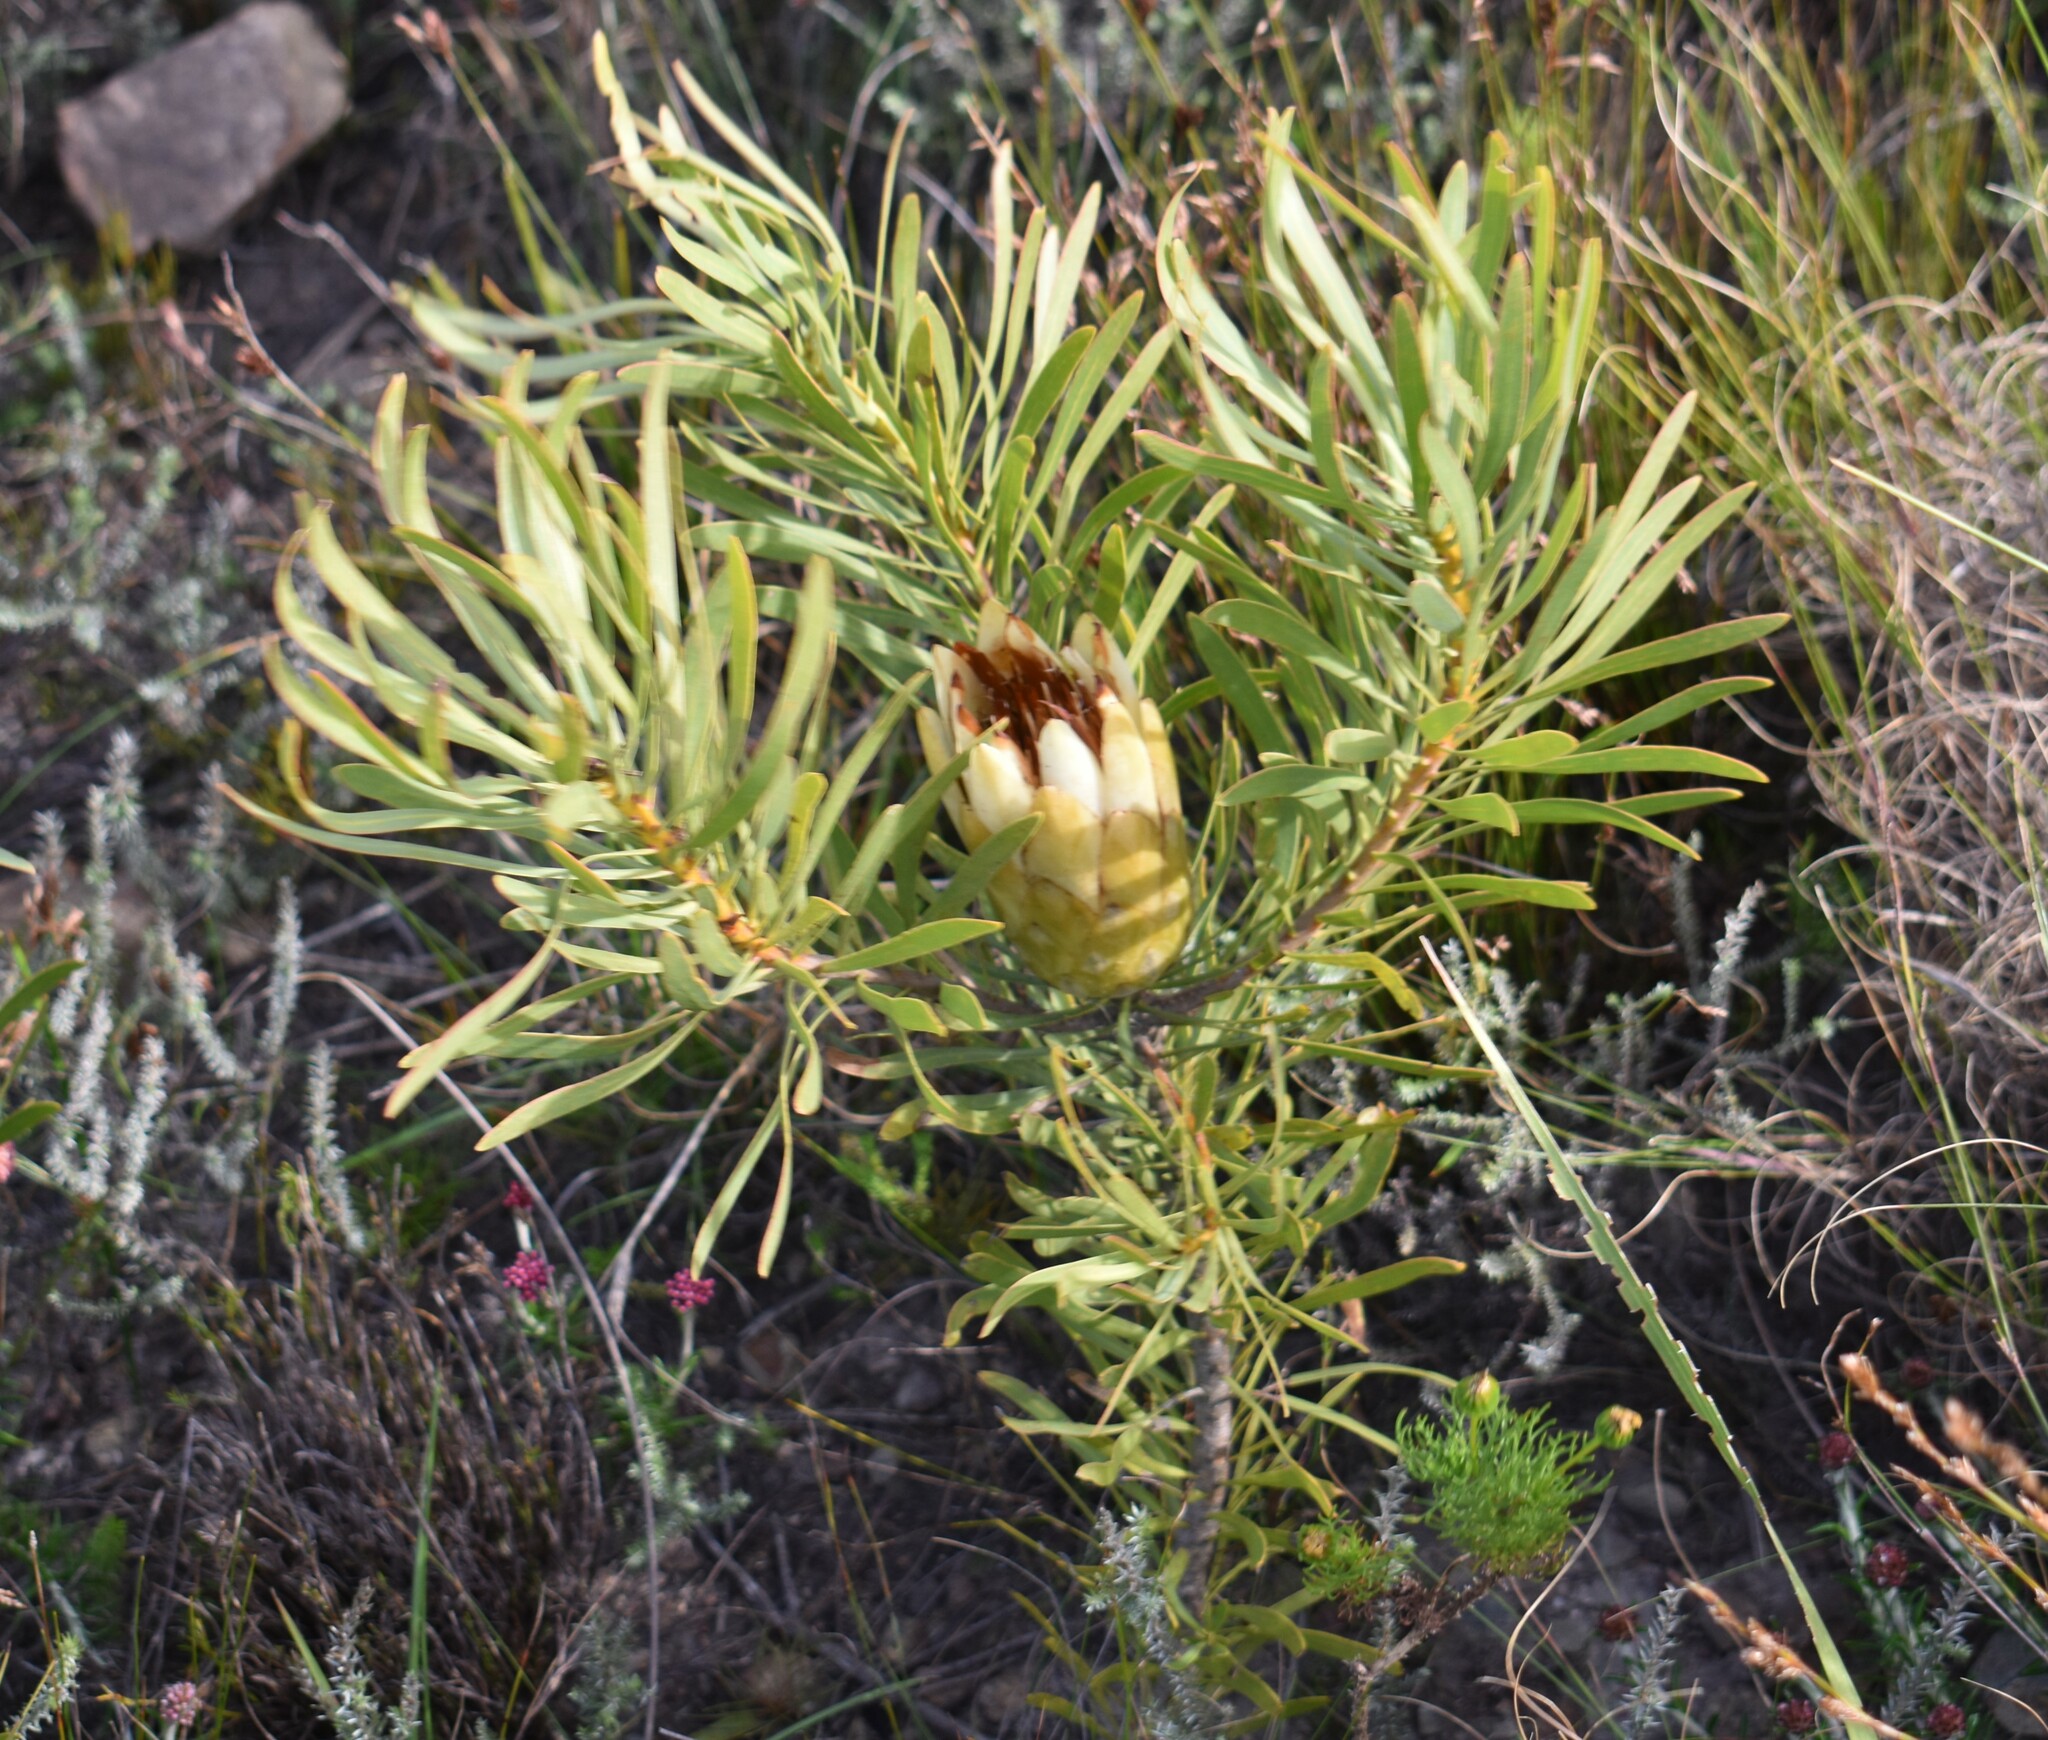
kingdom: Plantae
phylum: Tracheophyta
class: Magnoliopsida
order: Proteales
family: Proteaceae
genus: Protea
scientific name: Protea repens
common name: Sugarbush
